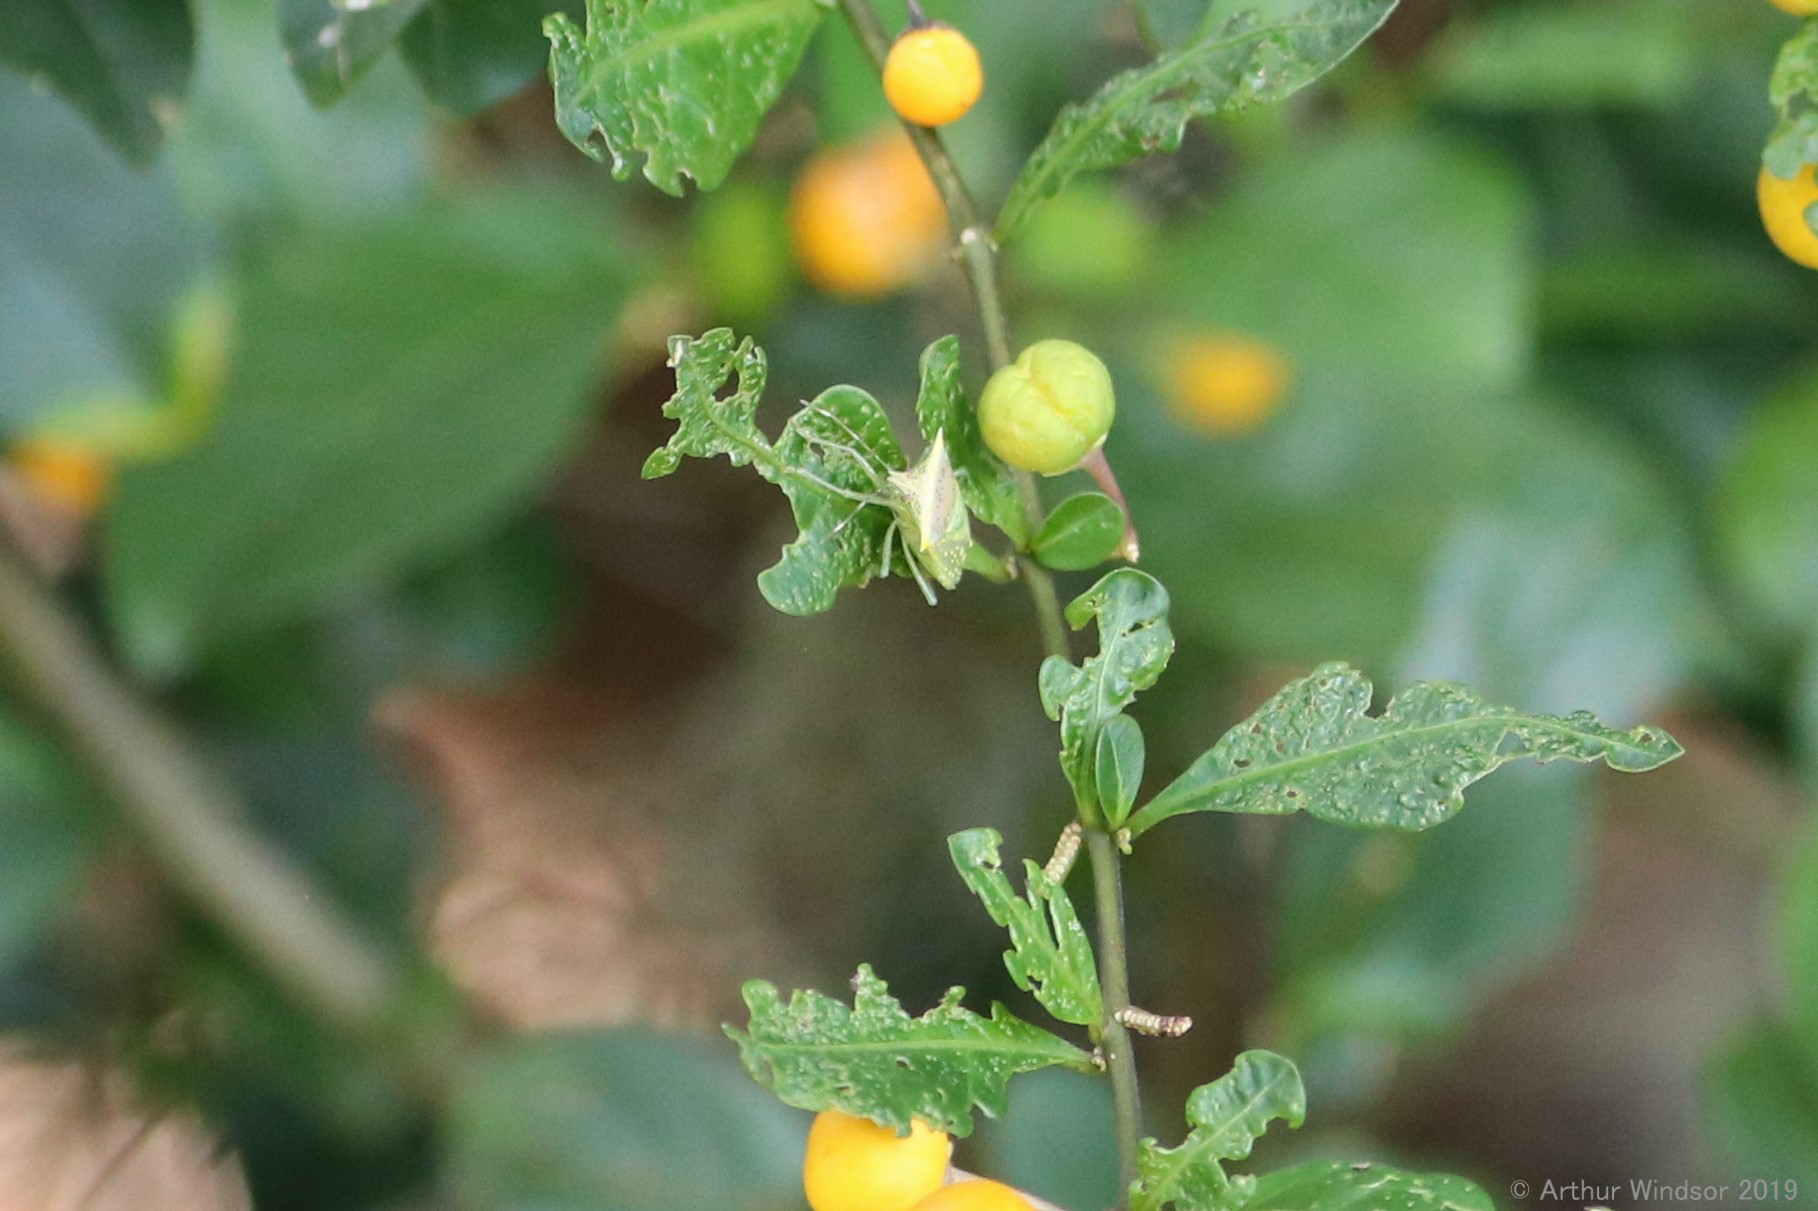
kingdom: Animalia
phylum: Arthropoda
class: Insecta
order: Hemiptera
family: Pentatomidae
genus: Arvelius
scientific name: Arvelius albopunctatus
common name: Tomato stink bug
